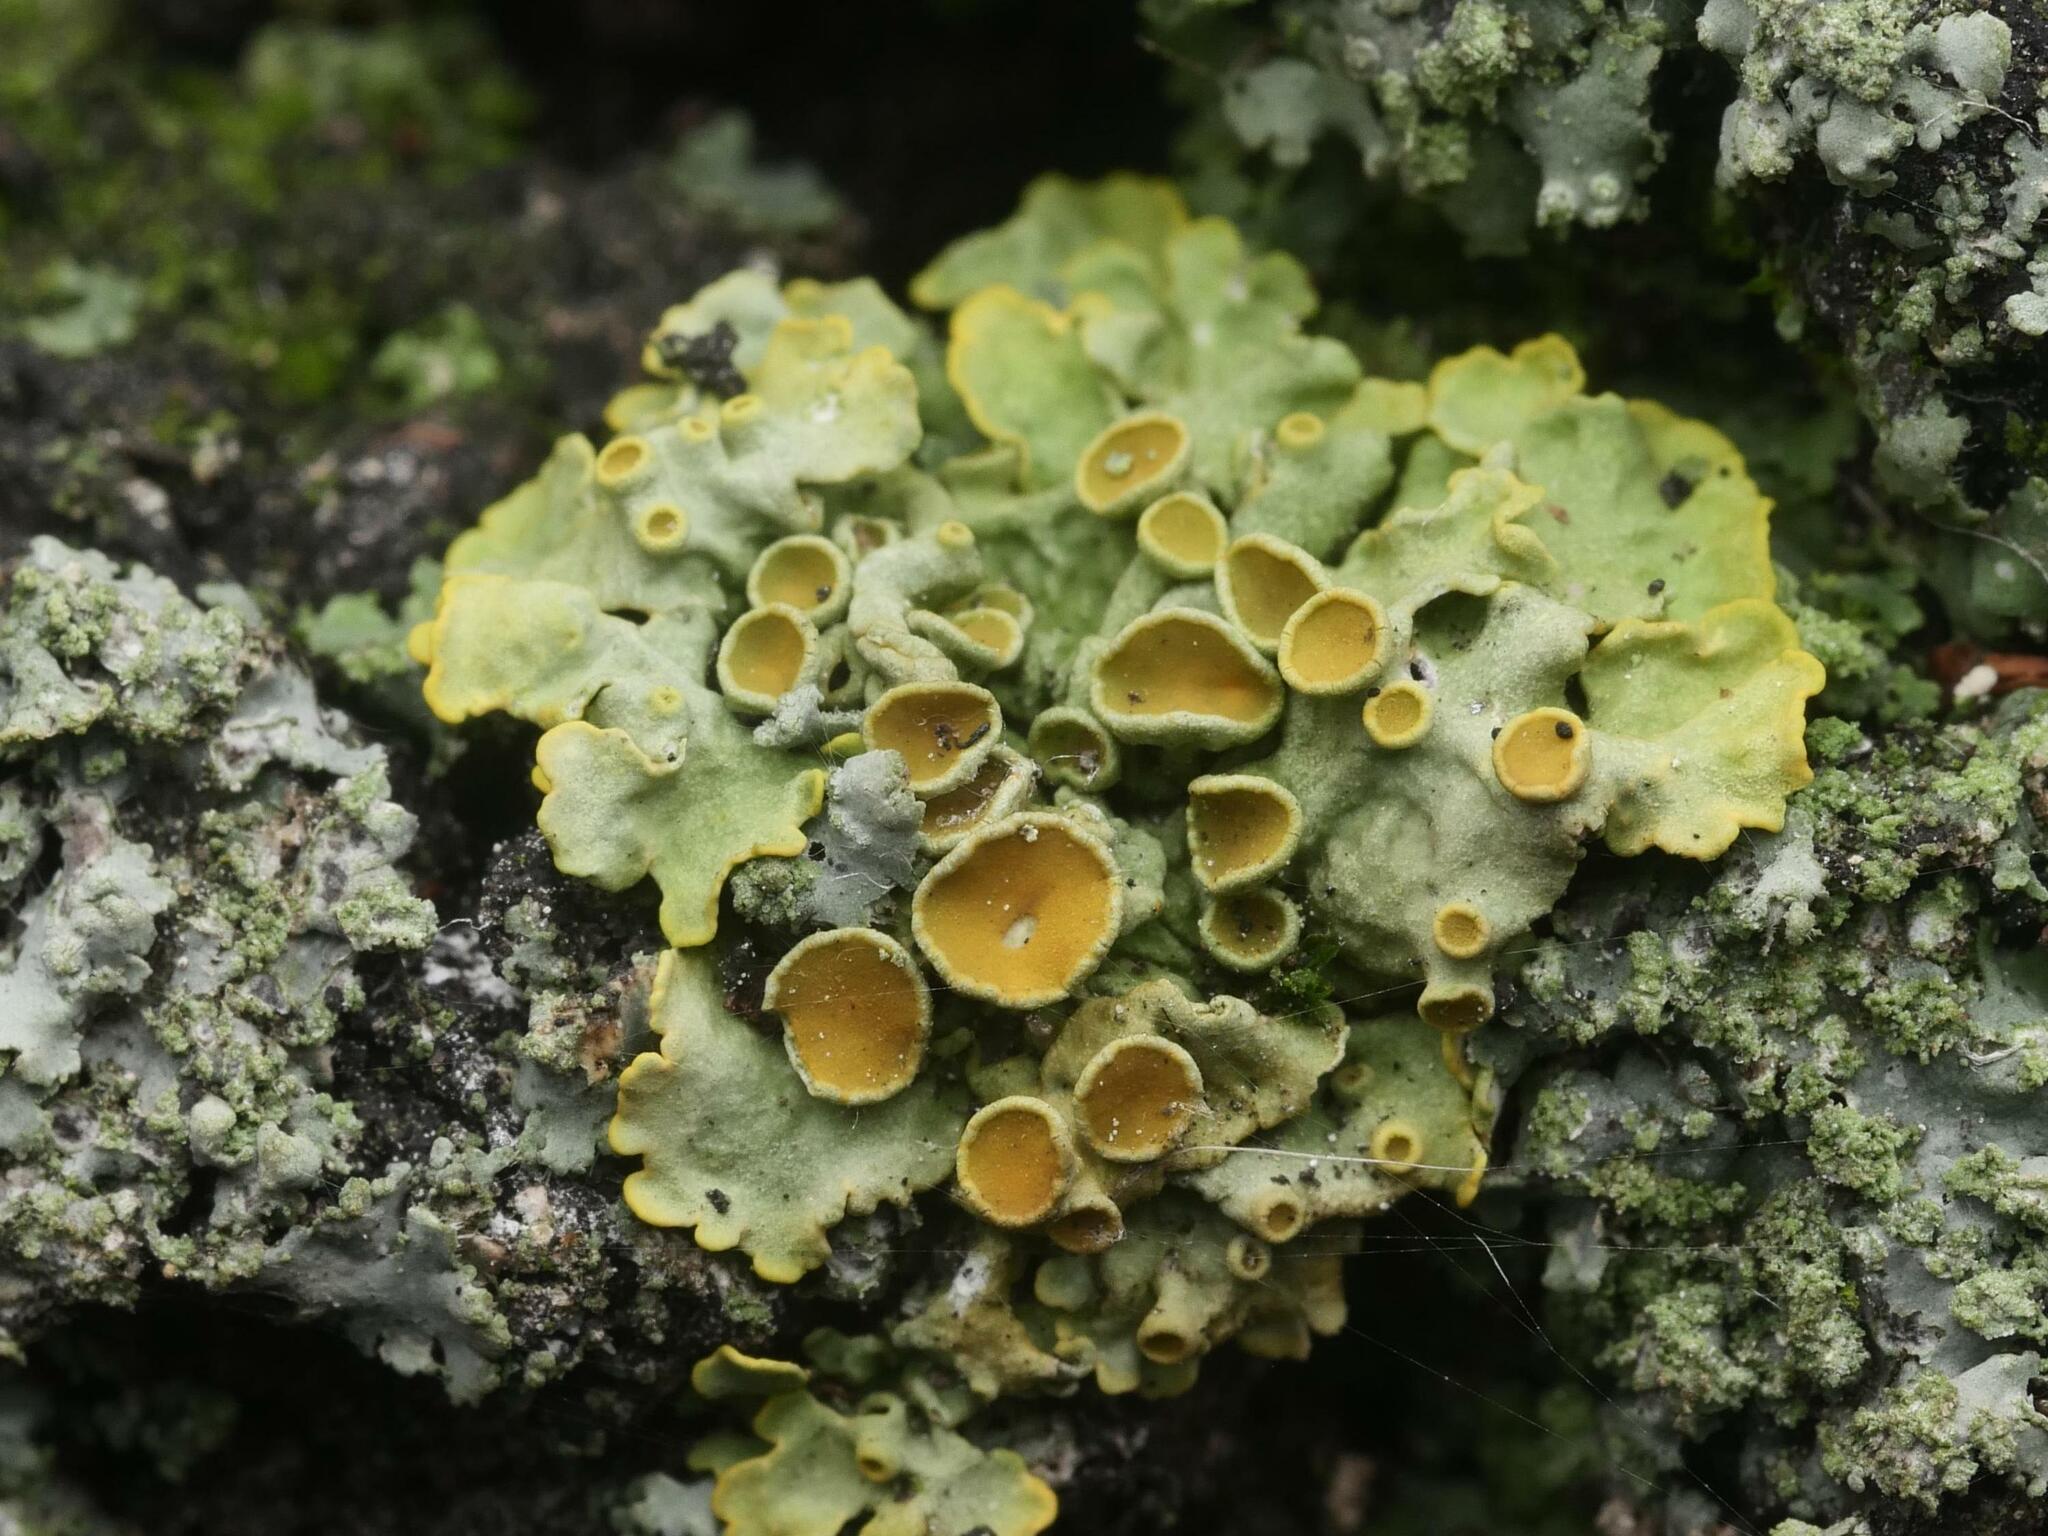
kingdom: Fungi
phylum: Ascomycota
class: Lecanoromycetes
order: Teloschistales
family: Teloschistaceae
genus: Xanthoria
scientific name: Xanthoria parietina
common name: Common orange lichen
